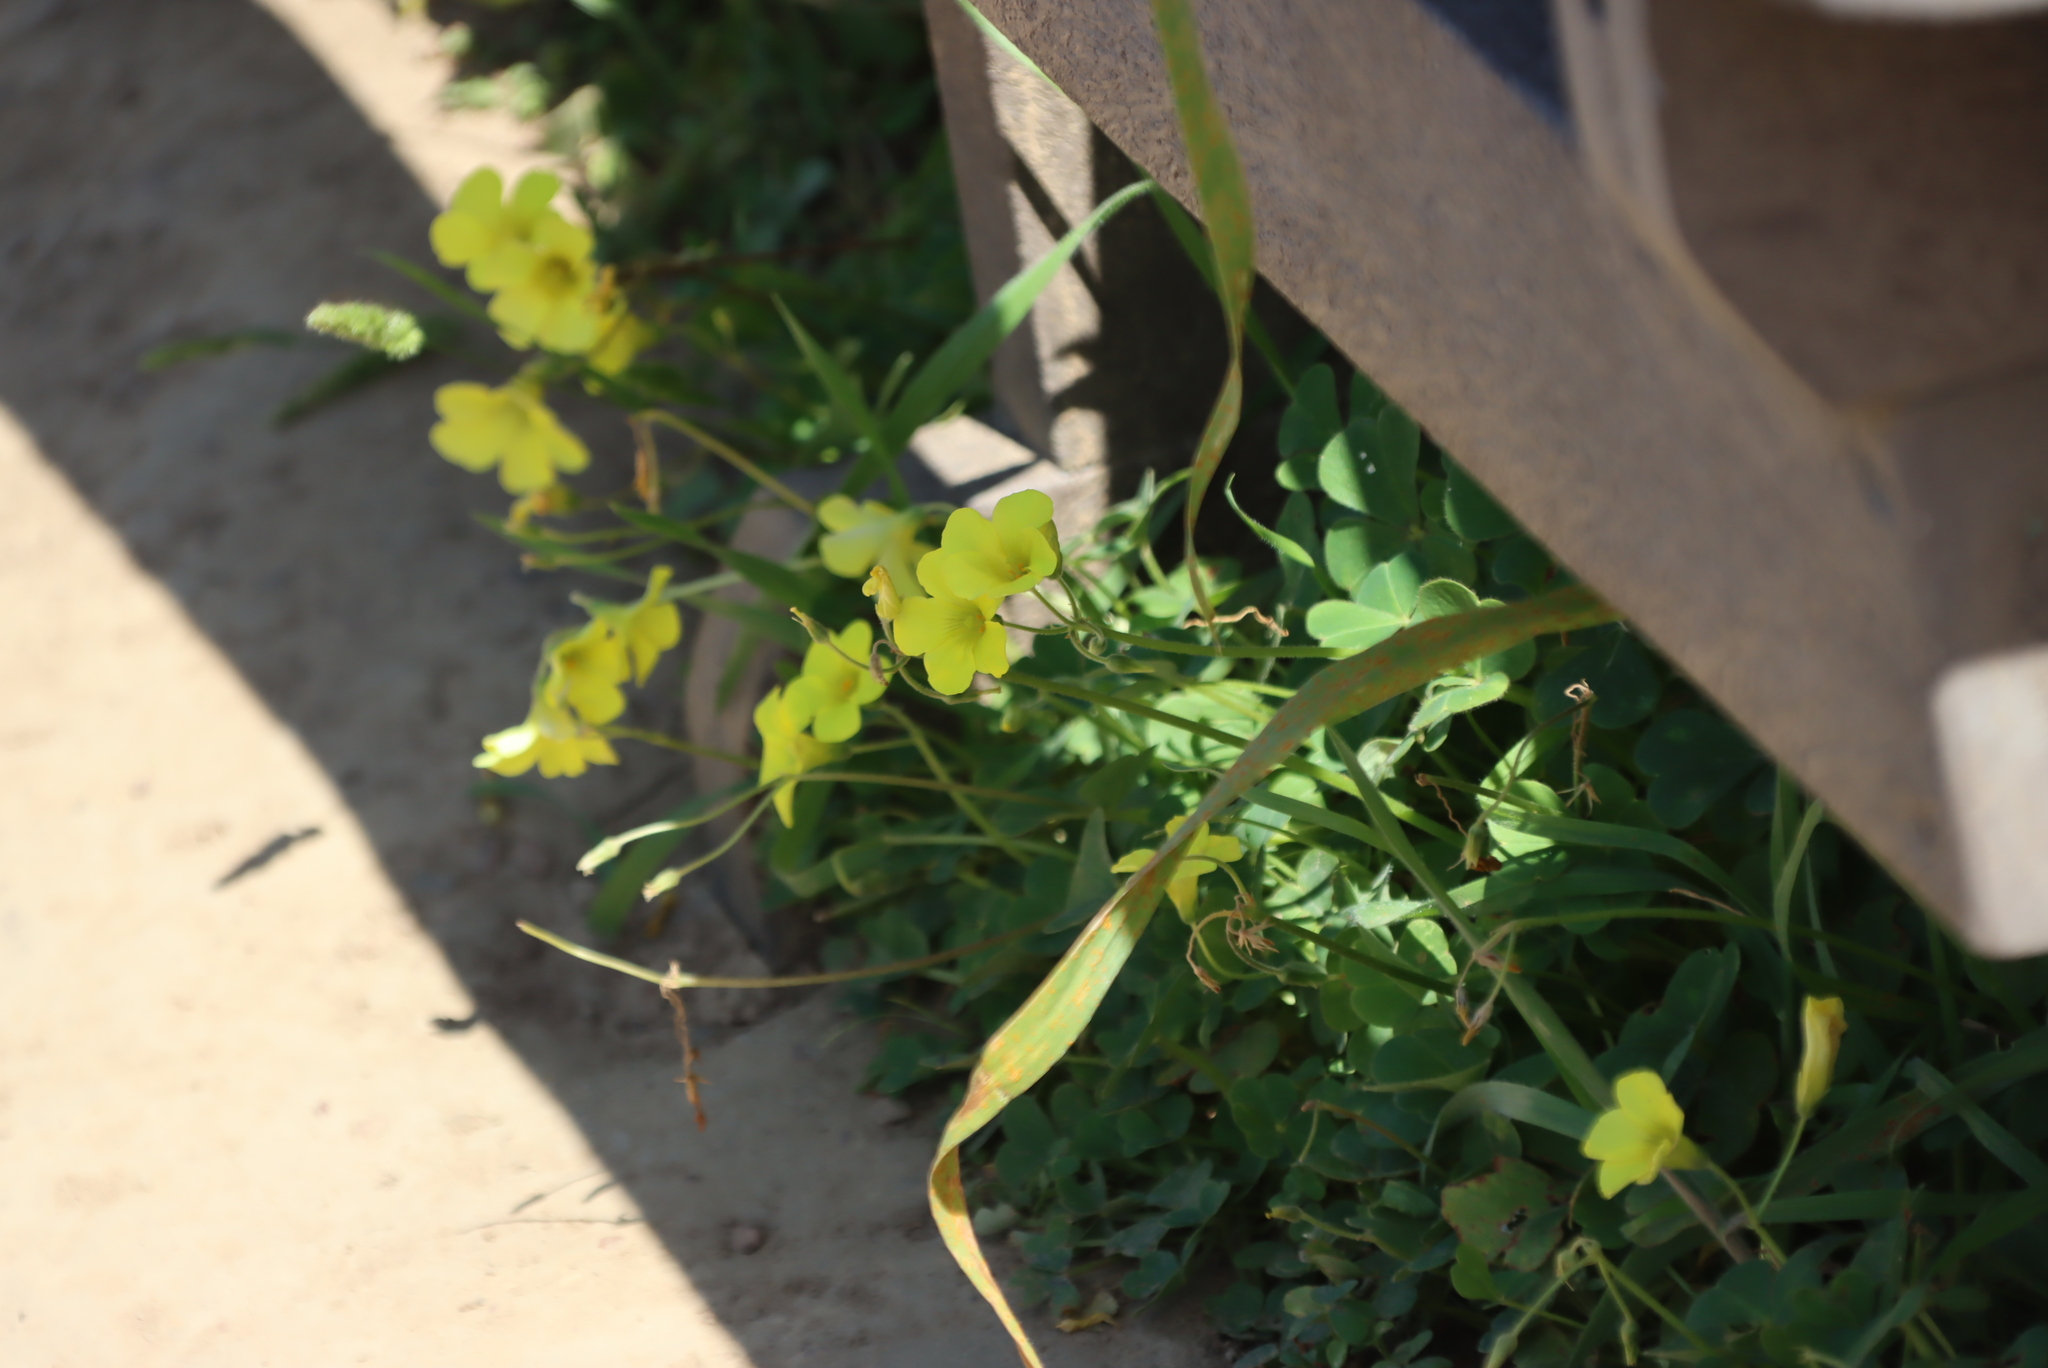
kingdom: Plantae
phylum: Tracheophyta
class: Magnoliopsida
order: Oxalidales
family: Oxalidaceae
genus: Oxalis
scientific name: Oxalis compressa
